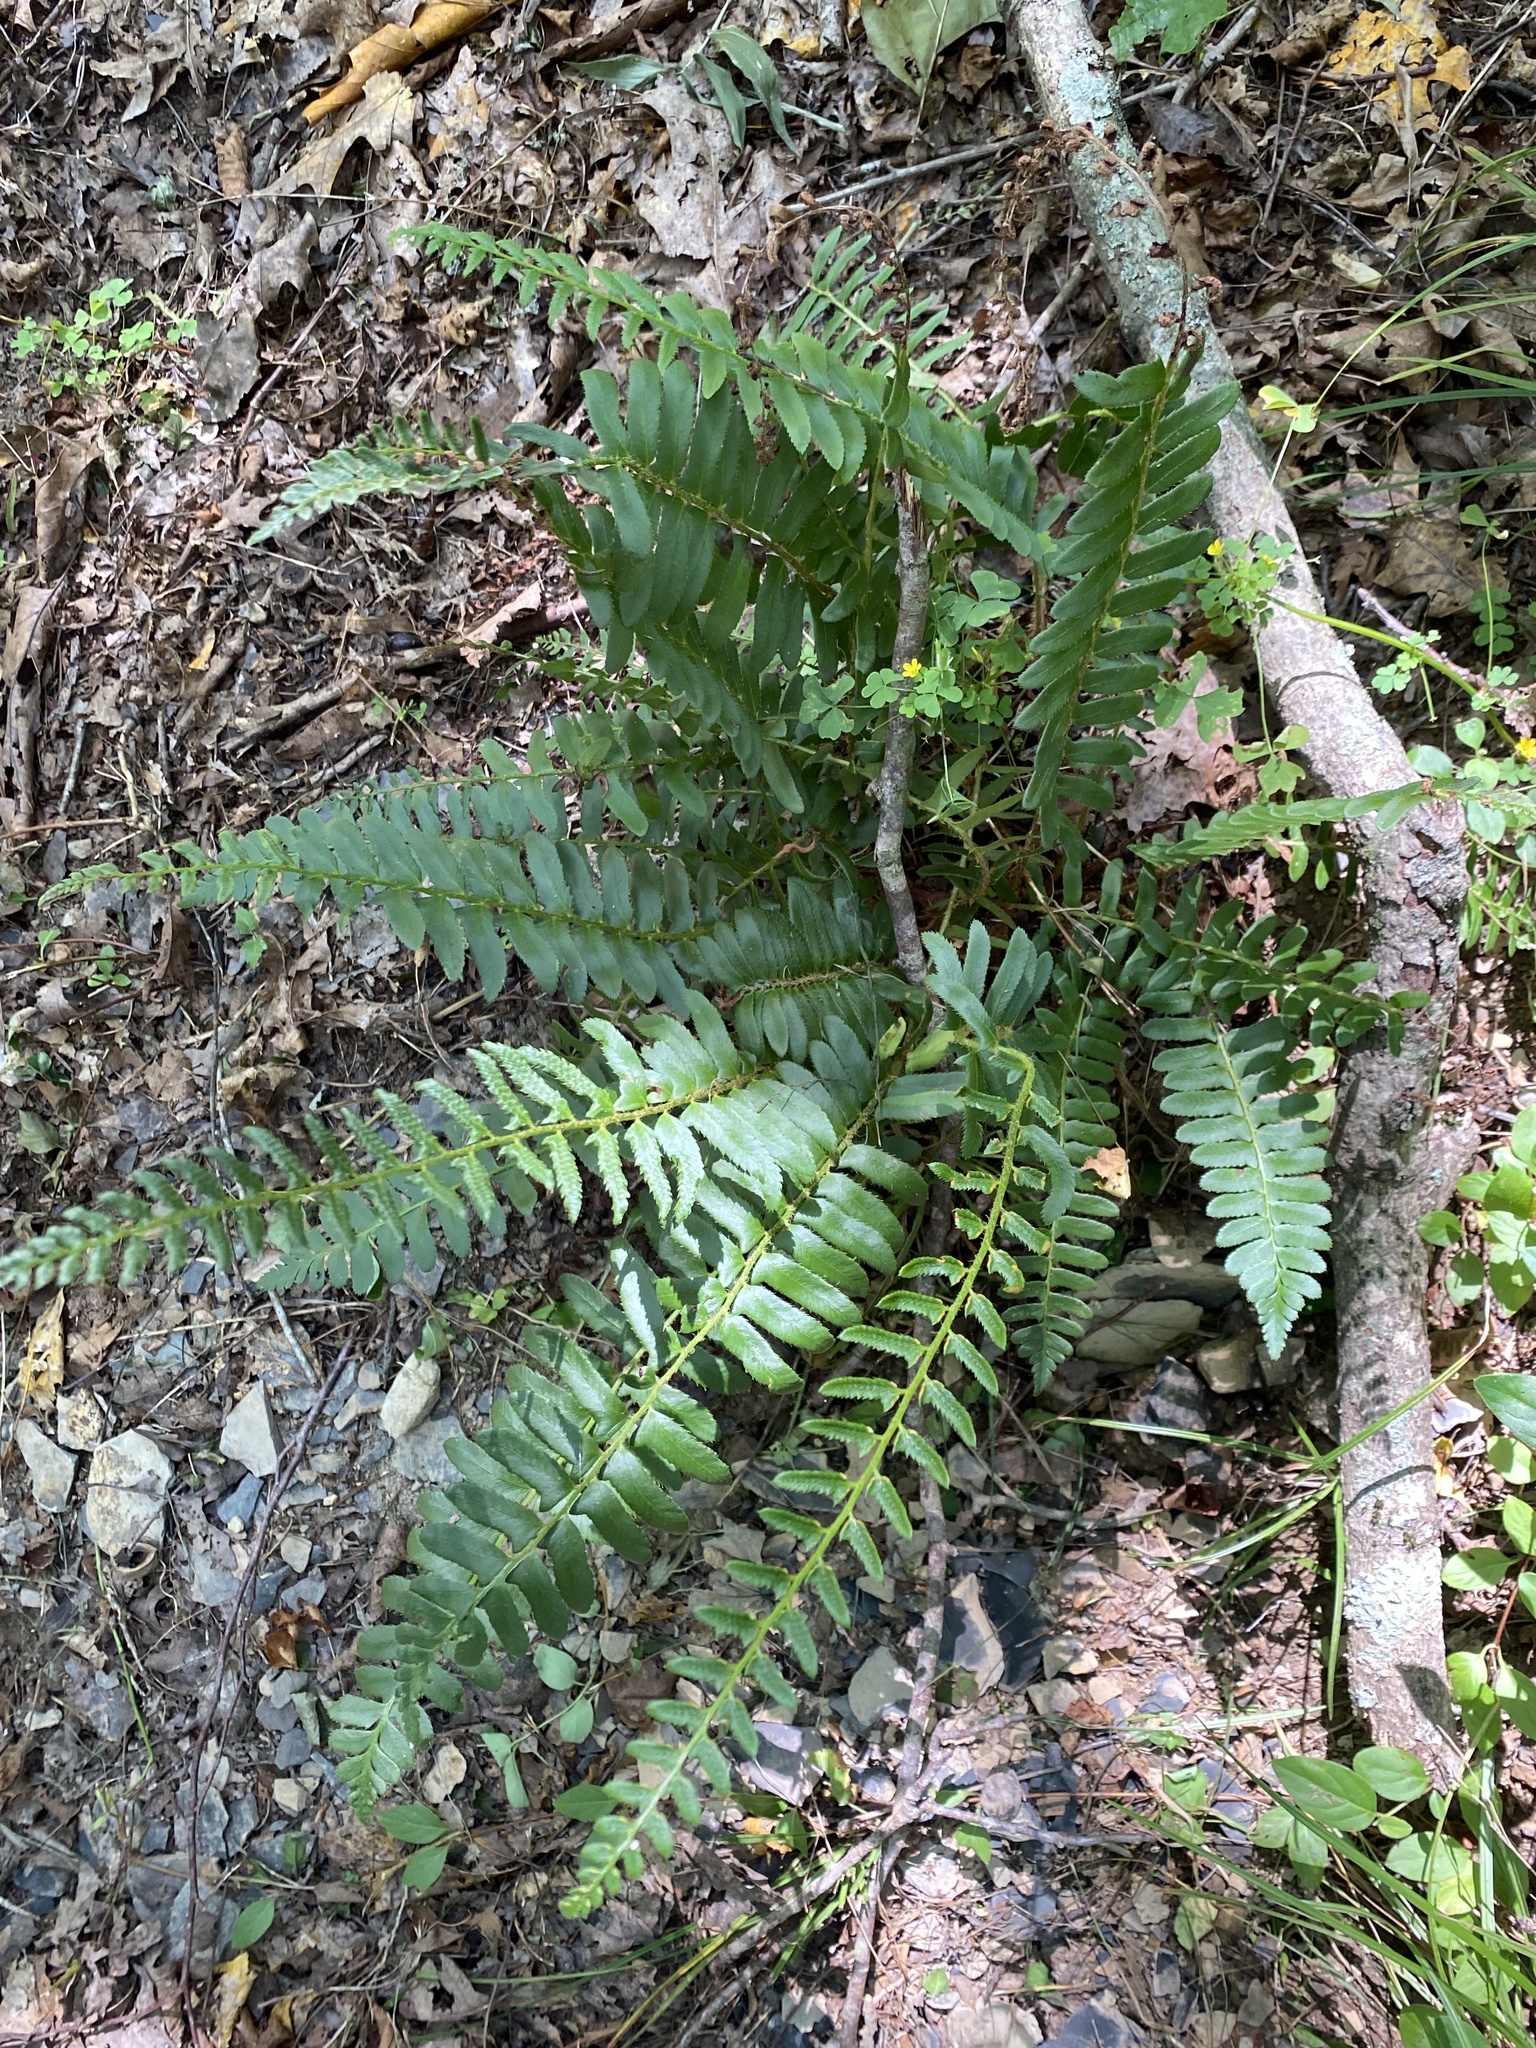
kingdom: Plantae
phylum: Tracheophyta
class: Polypodiopsida
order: Polypodiales
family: Dryopteridaceae
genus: Polystichum
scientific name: Polystichum acrostichoides
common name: Christmas fern
